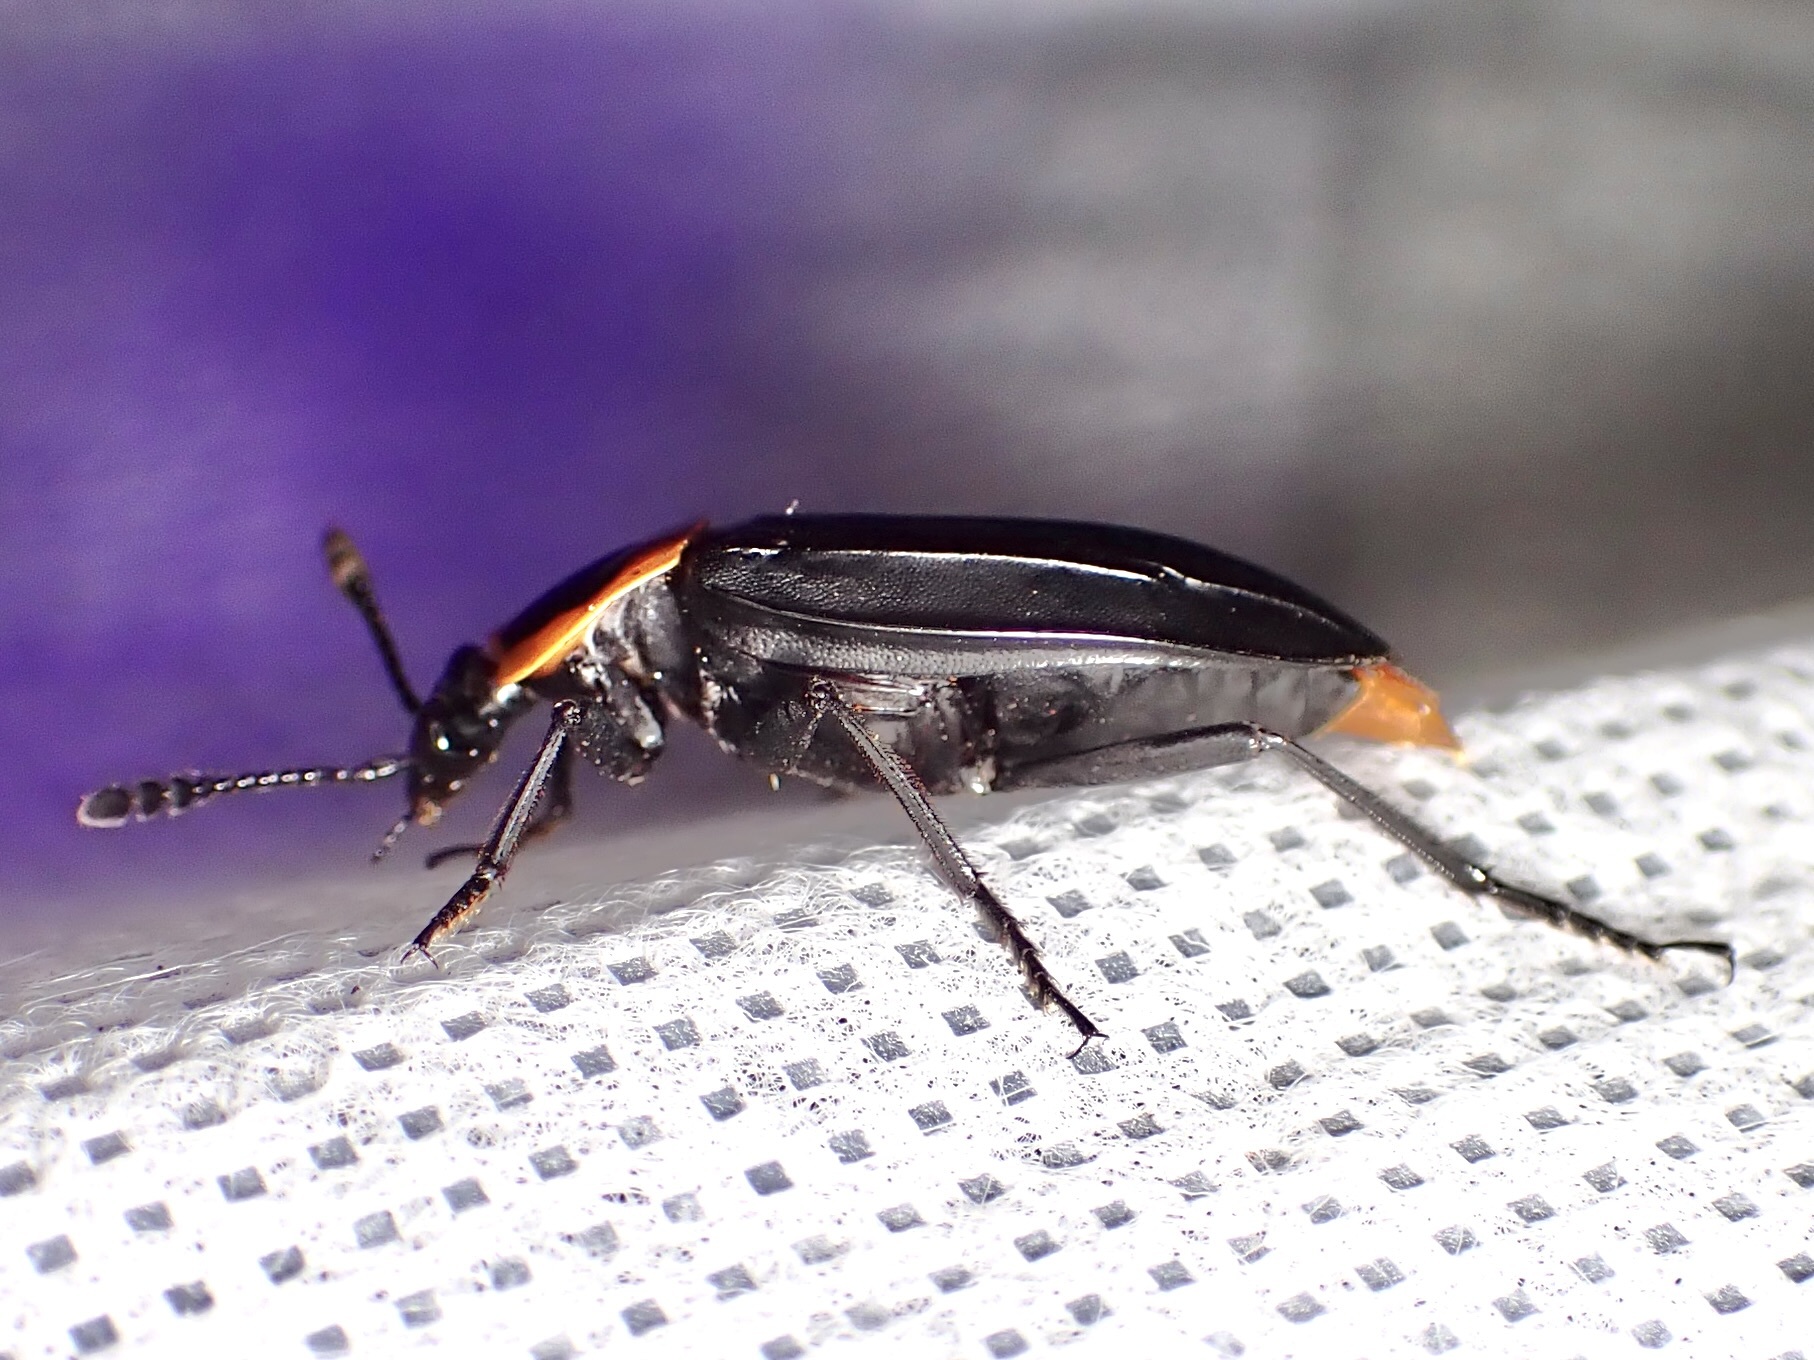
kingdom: Animalia
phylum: Arthropoda
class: Insecta
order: Coleoptera
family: Staphylinidae
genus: Oxelytrum
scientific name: Oxelytrum discicolle
